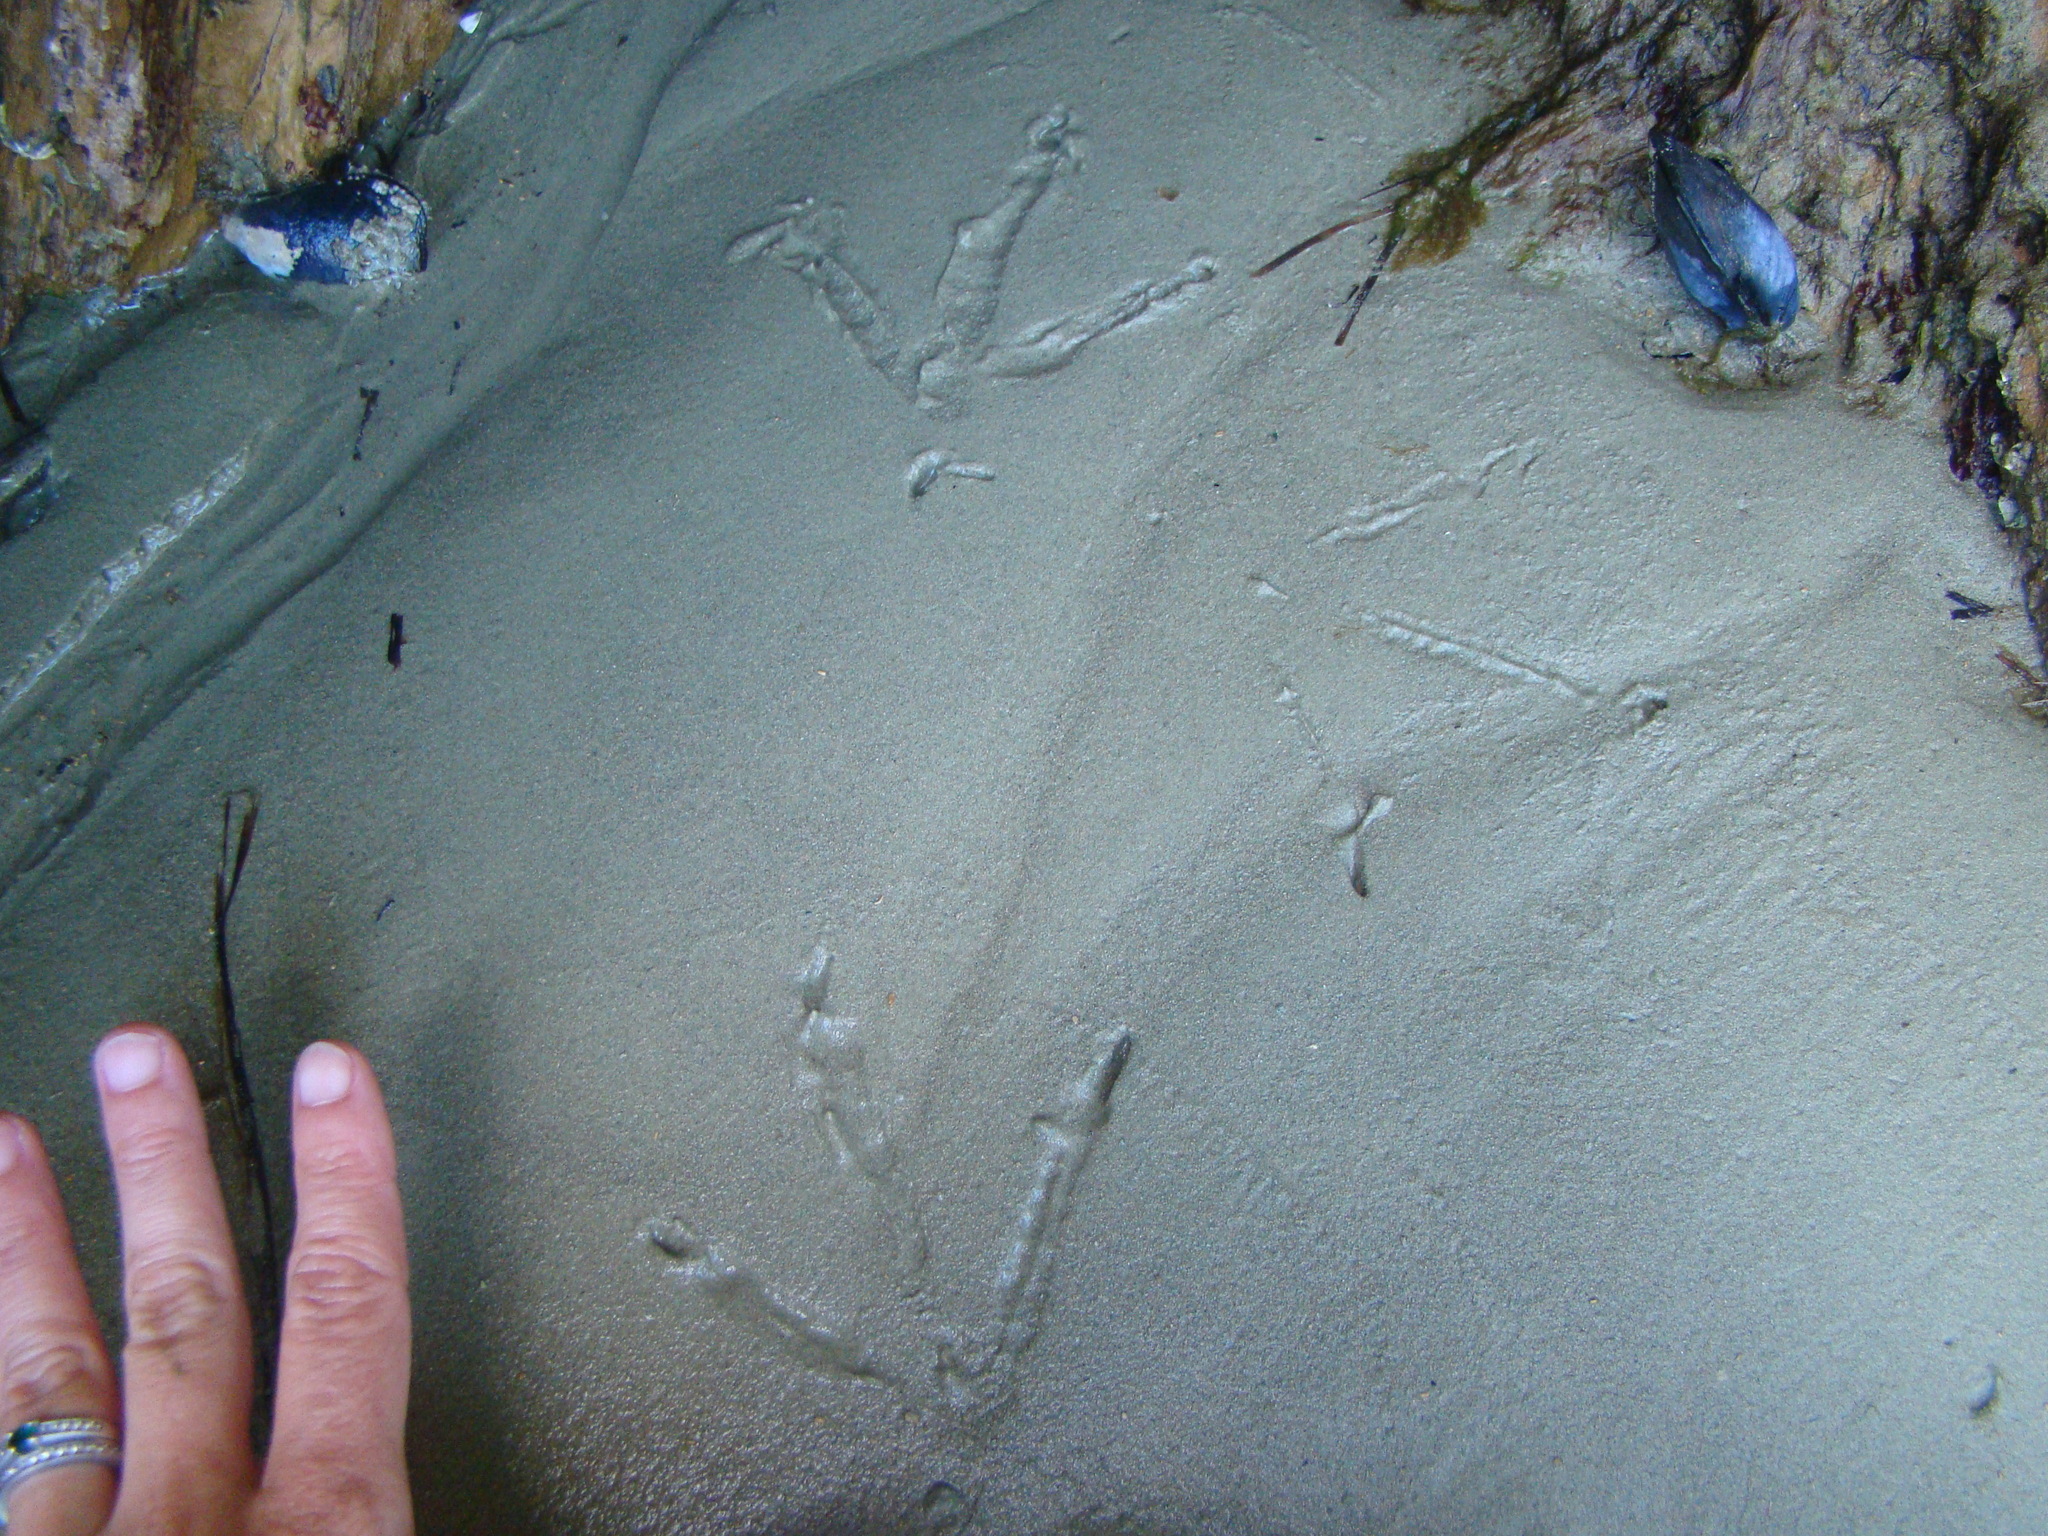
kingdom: Animalia
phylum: Chordata
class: Aves
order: Gruiformes
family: Rallidae
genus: Gallirallus
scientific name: Gallirallus australis
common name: Weka
